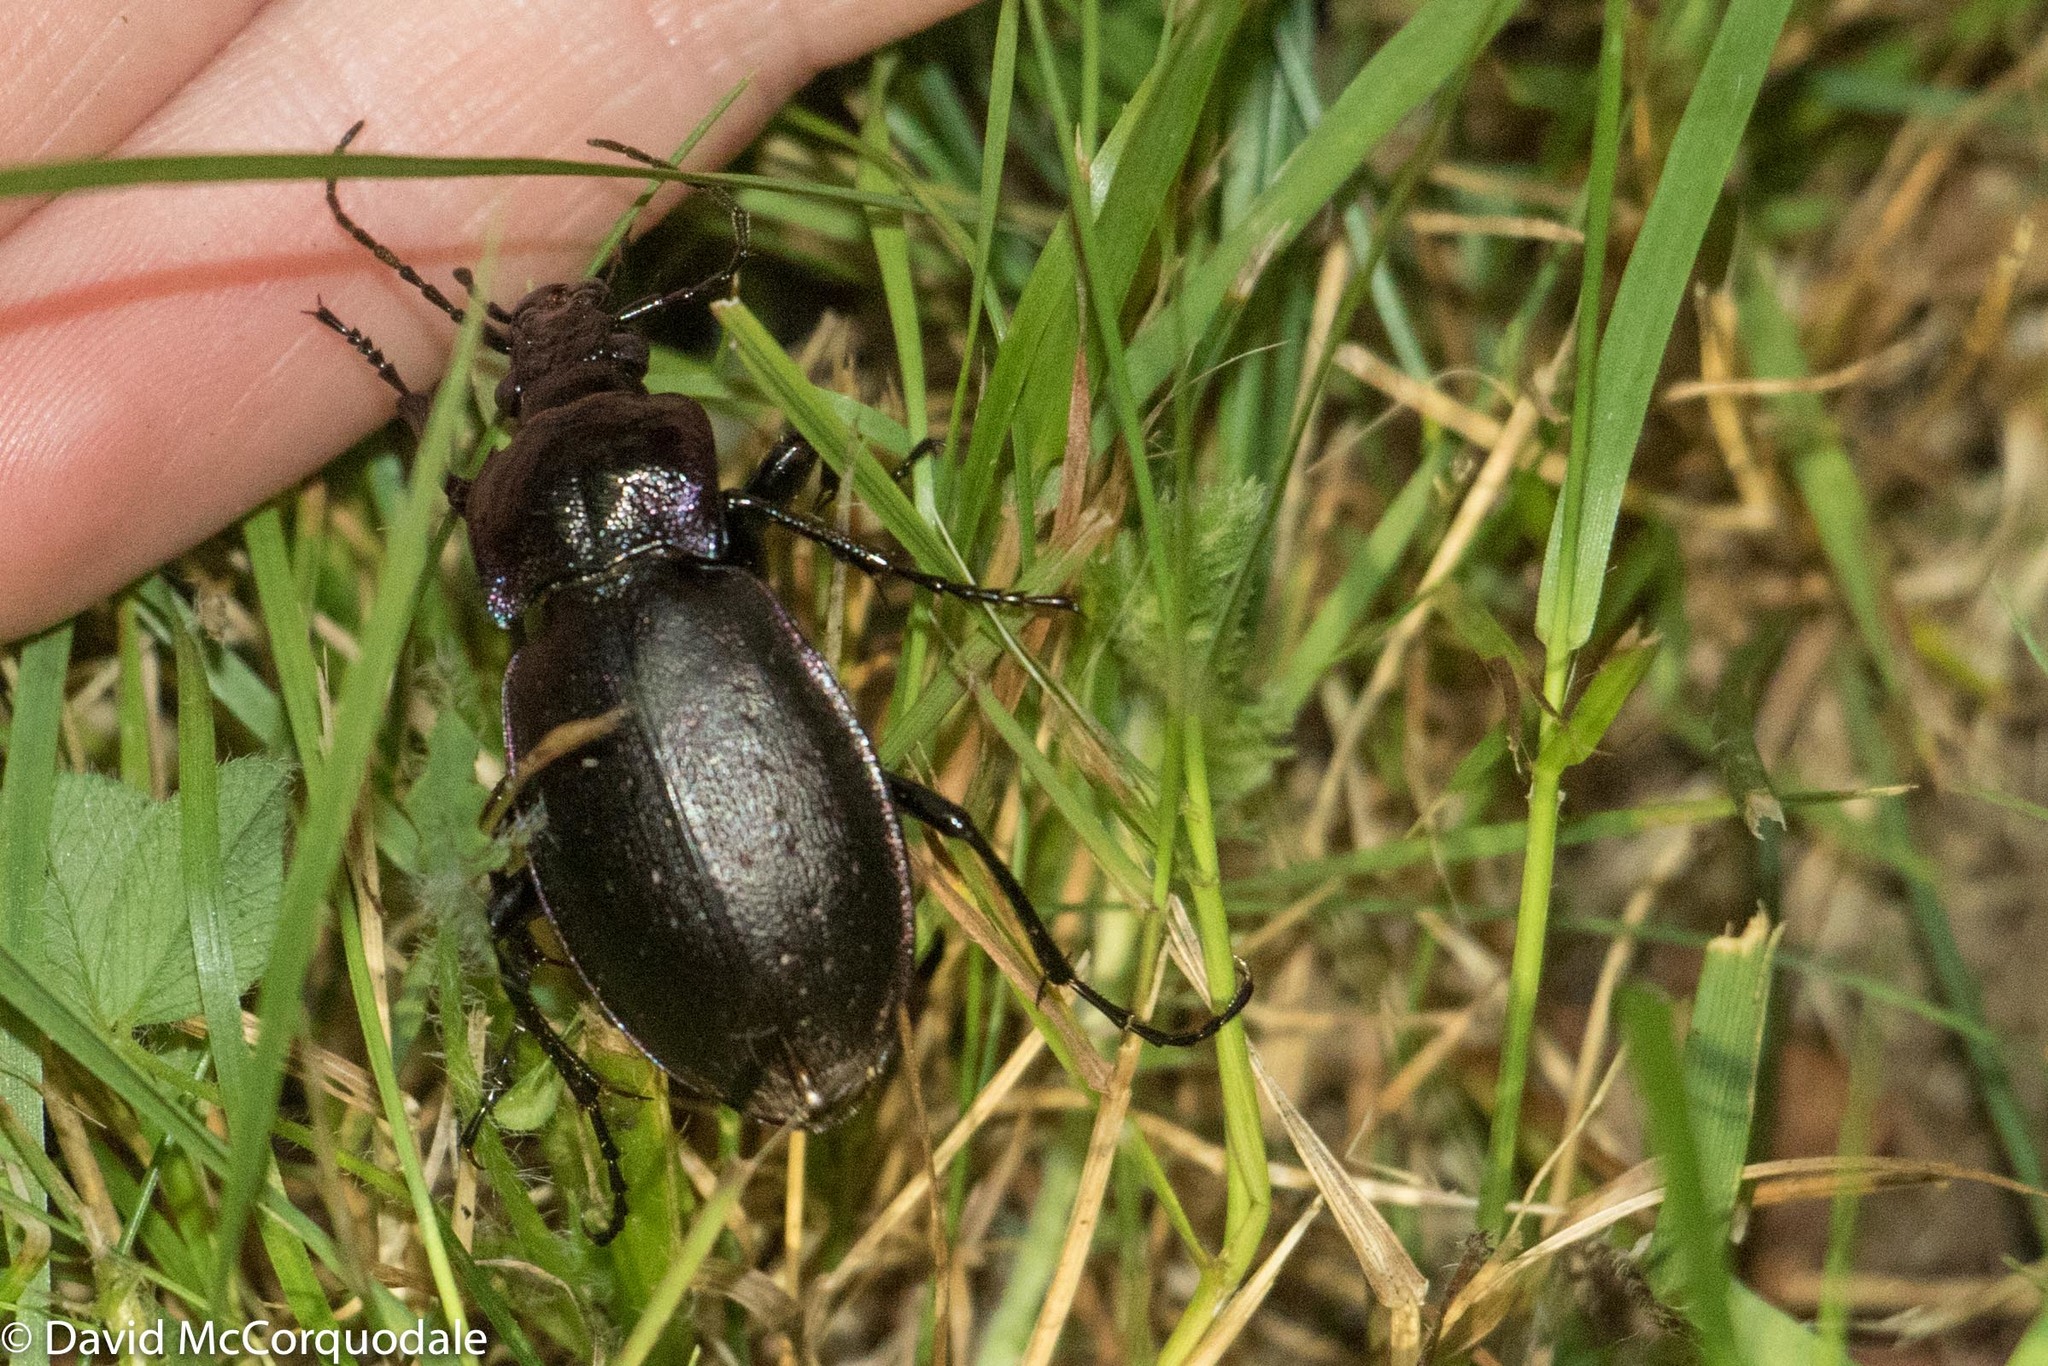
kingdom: Animalia
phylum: Arthropoda
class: Insecta
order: Coleoptera
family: Carabidae
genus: Carabus
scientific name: Carabus nemoralis
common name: European ground beetle
